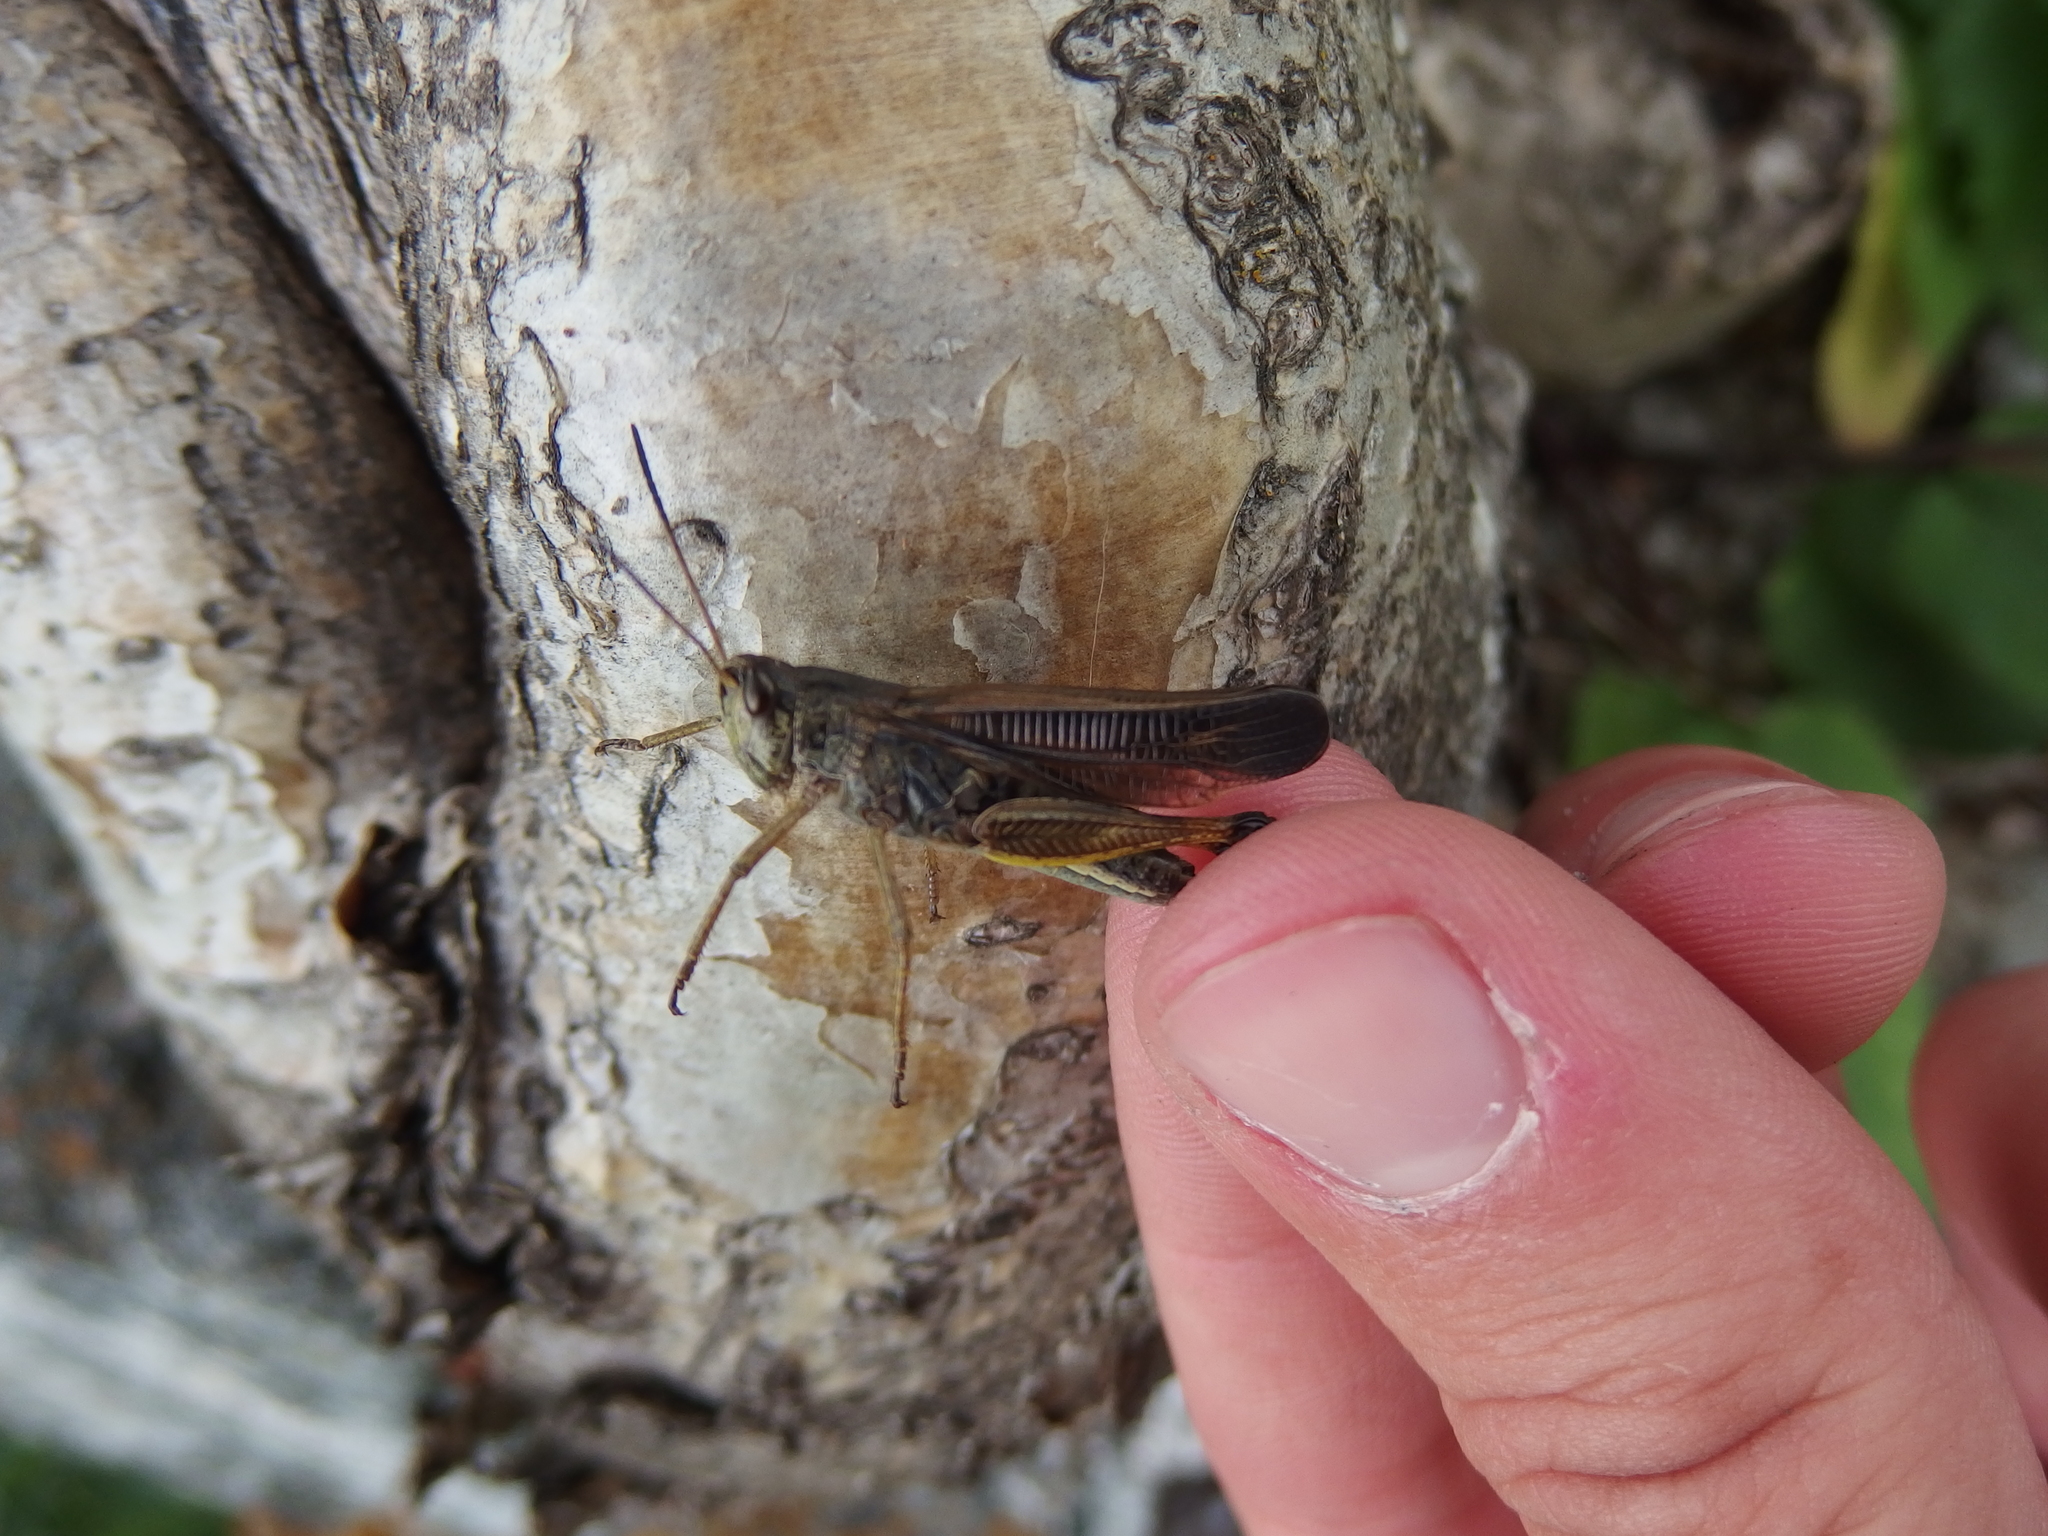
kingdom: Animalia
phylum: Arthropoda
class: Insecta
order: Orthoptera
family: Acrididae
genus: Stauroderus
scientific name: Stauroderus scalaris
